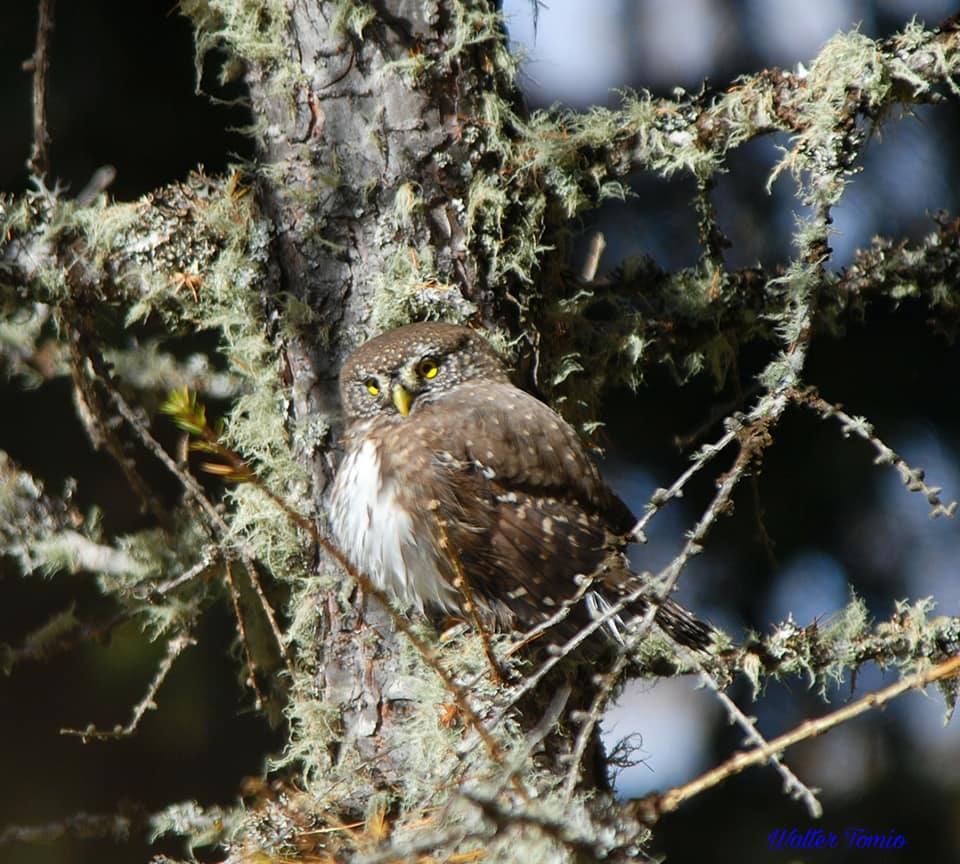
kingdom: Animalia
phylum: Chordata
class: Aves
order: Strigiformes
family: Strigidae
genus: Glaucidium
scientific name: Glaucidium passerinum
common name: Eurasian pygmy owl
